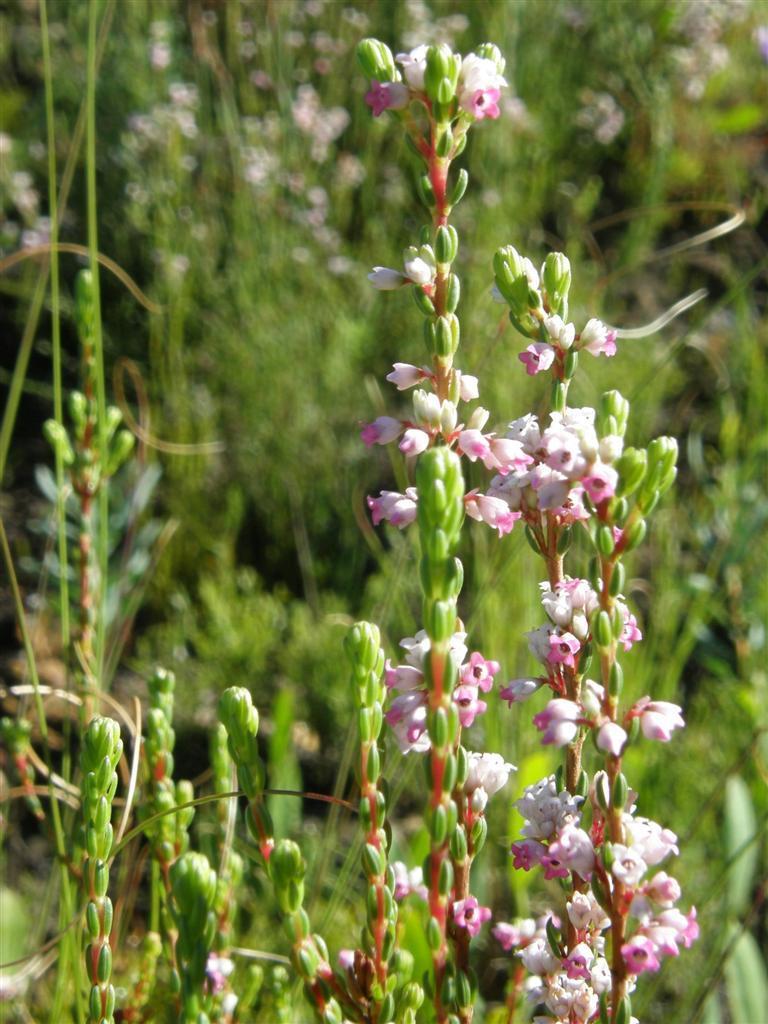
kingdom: Plantae
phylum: Tracheophyta
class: Magnoliopsida
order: Ericales
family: Ericaceae
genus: Erica
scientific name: Erica articularis
